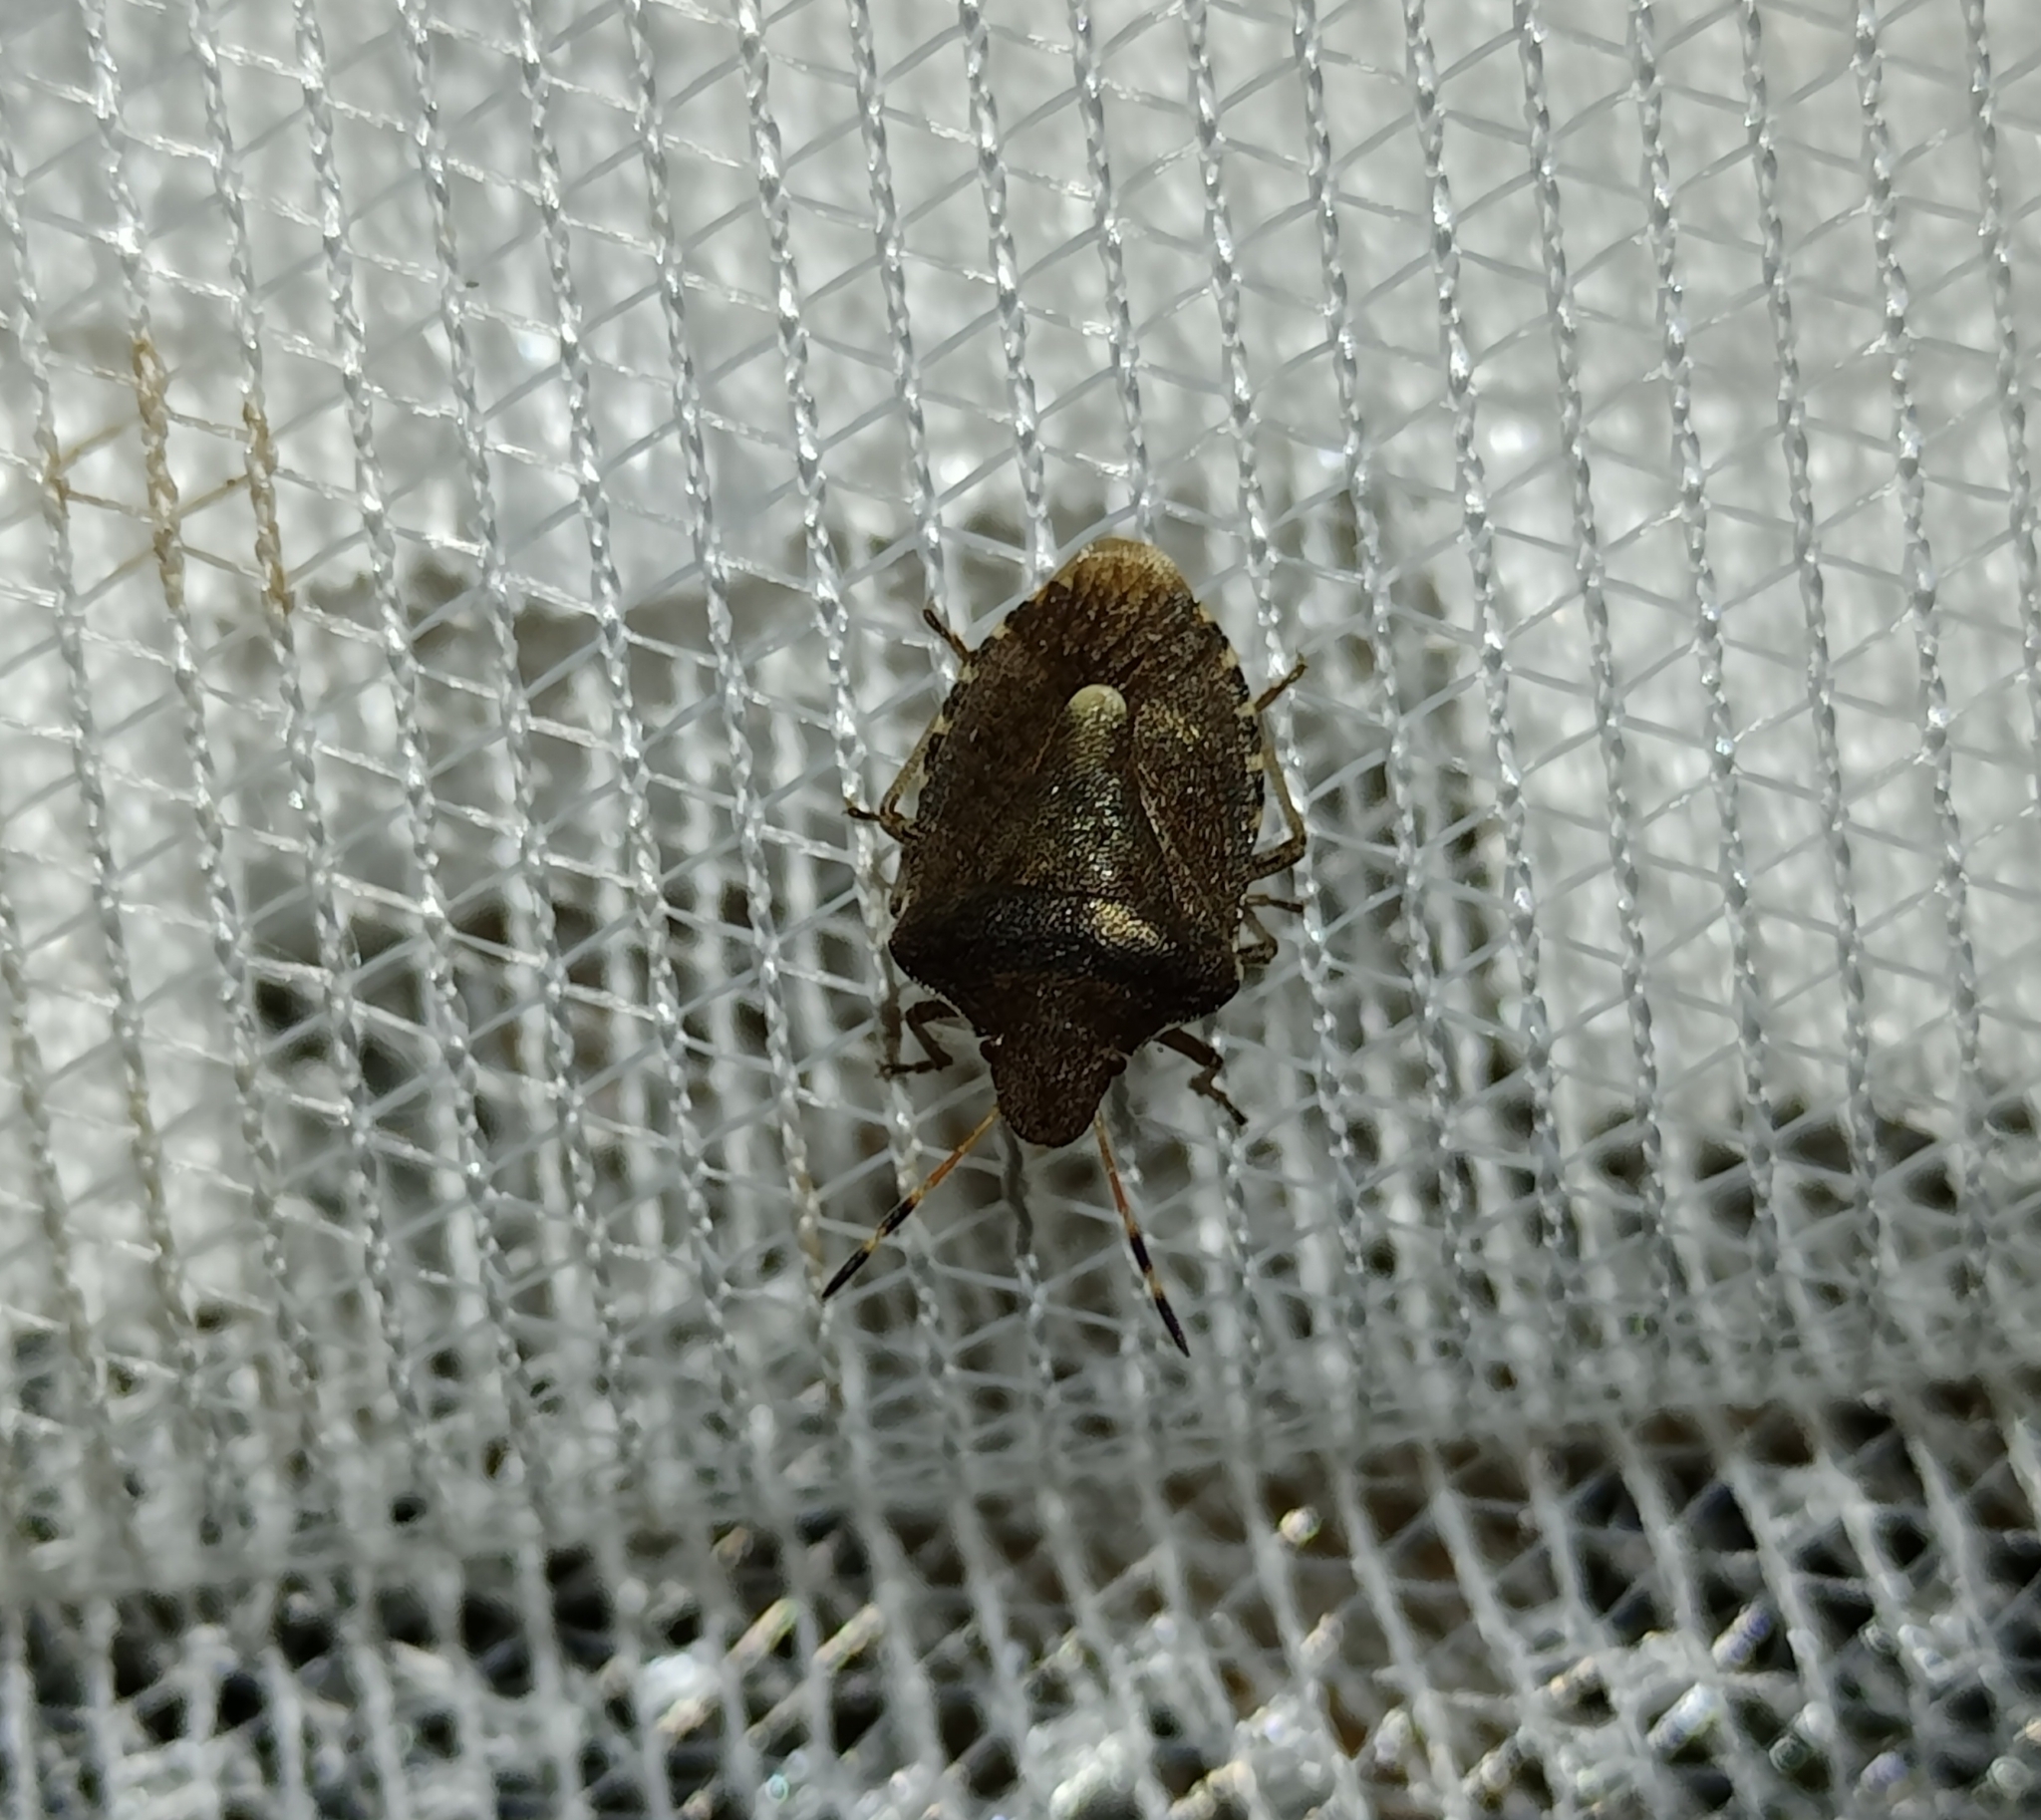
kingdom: Animalia
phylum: Arthropoda
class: Insecta
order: Hemiptera
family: Pentatomidae
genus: Holcostethus
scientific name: Holcostethus strictus
